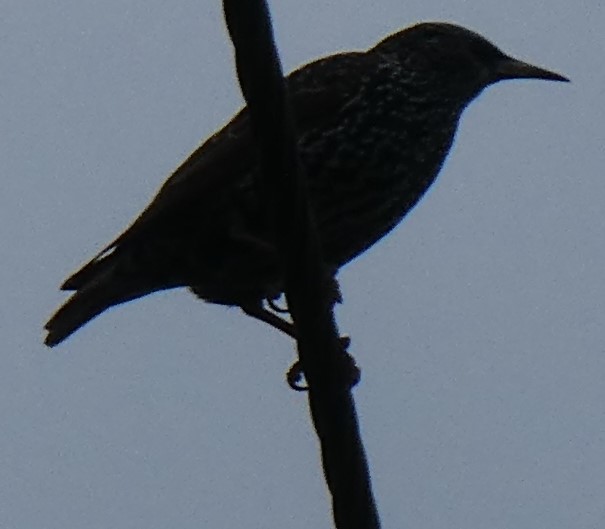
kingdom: Animalia
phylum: Chordata
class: Aves
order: Passeriformes
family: Sturnidae
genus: Sturnus
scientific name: Sturnus vulgaris
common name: Common starling
